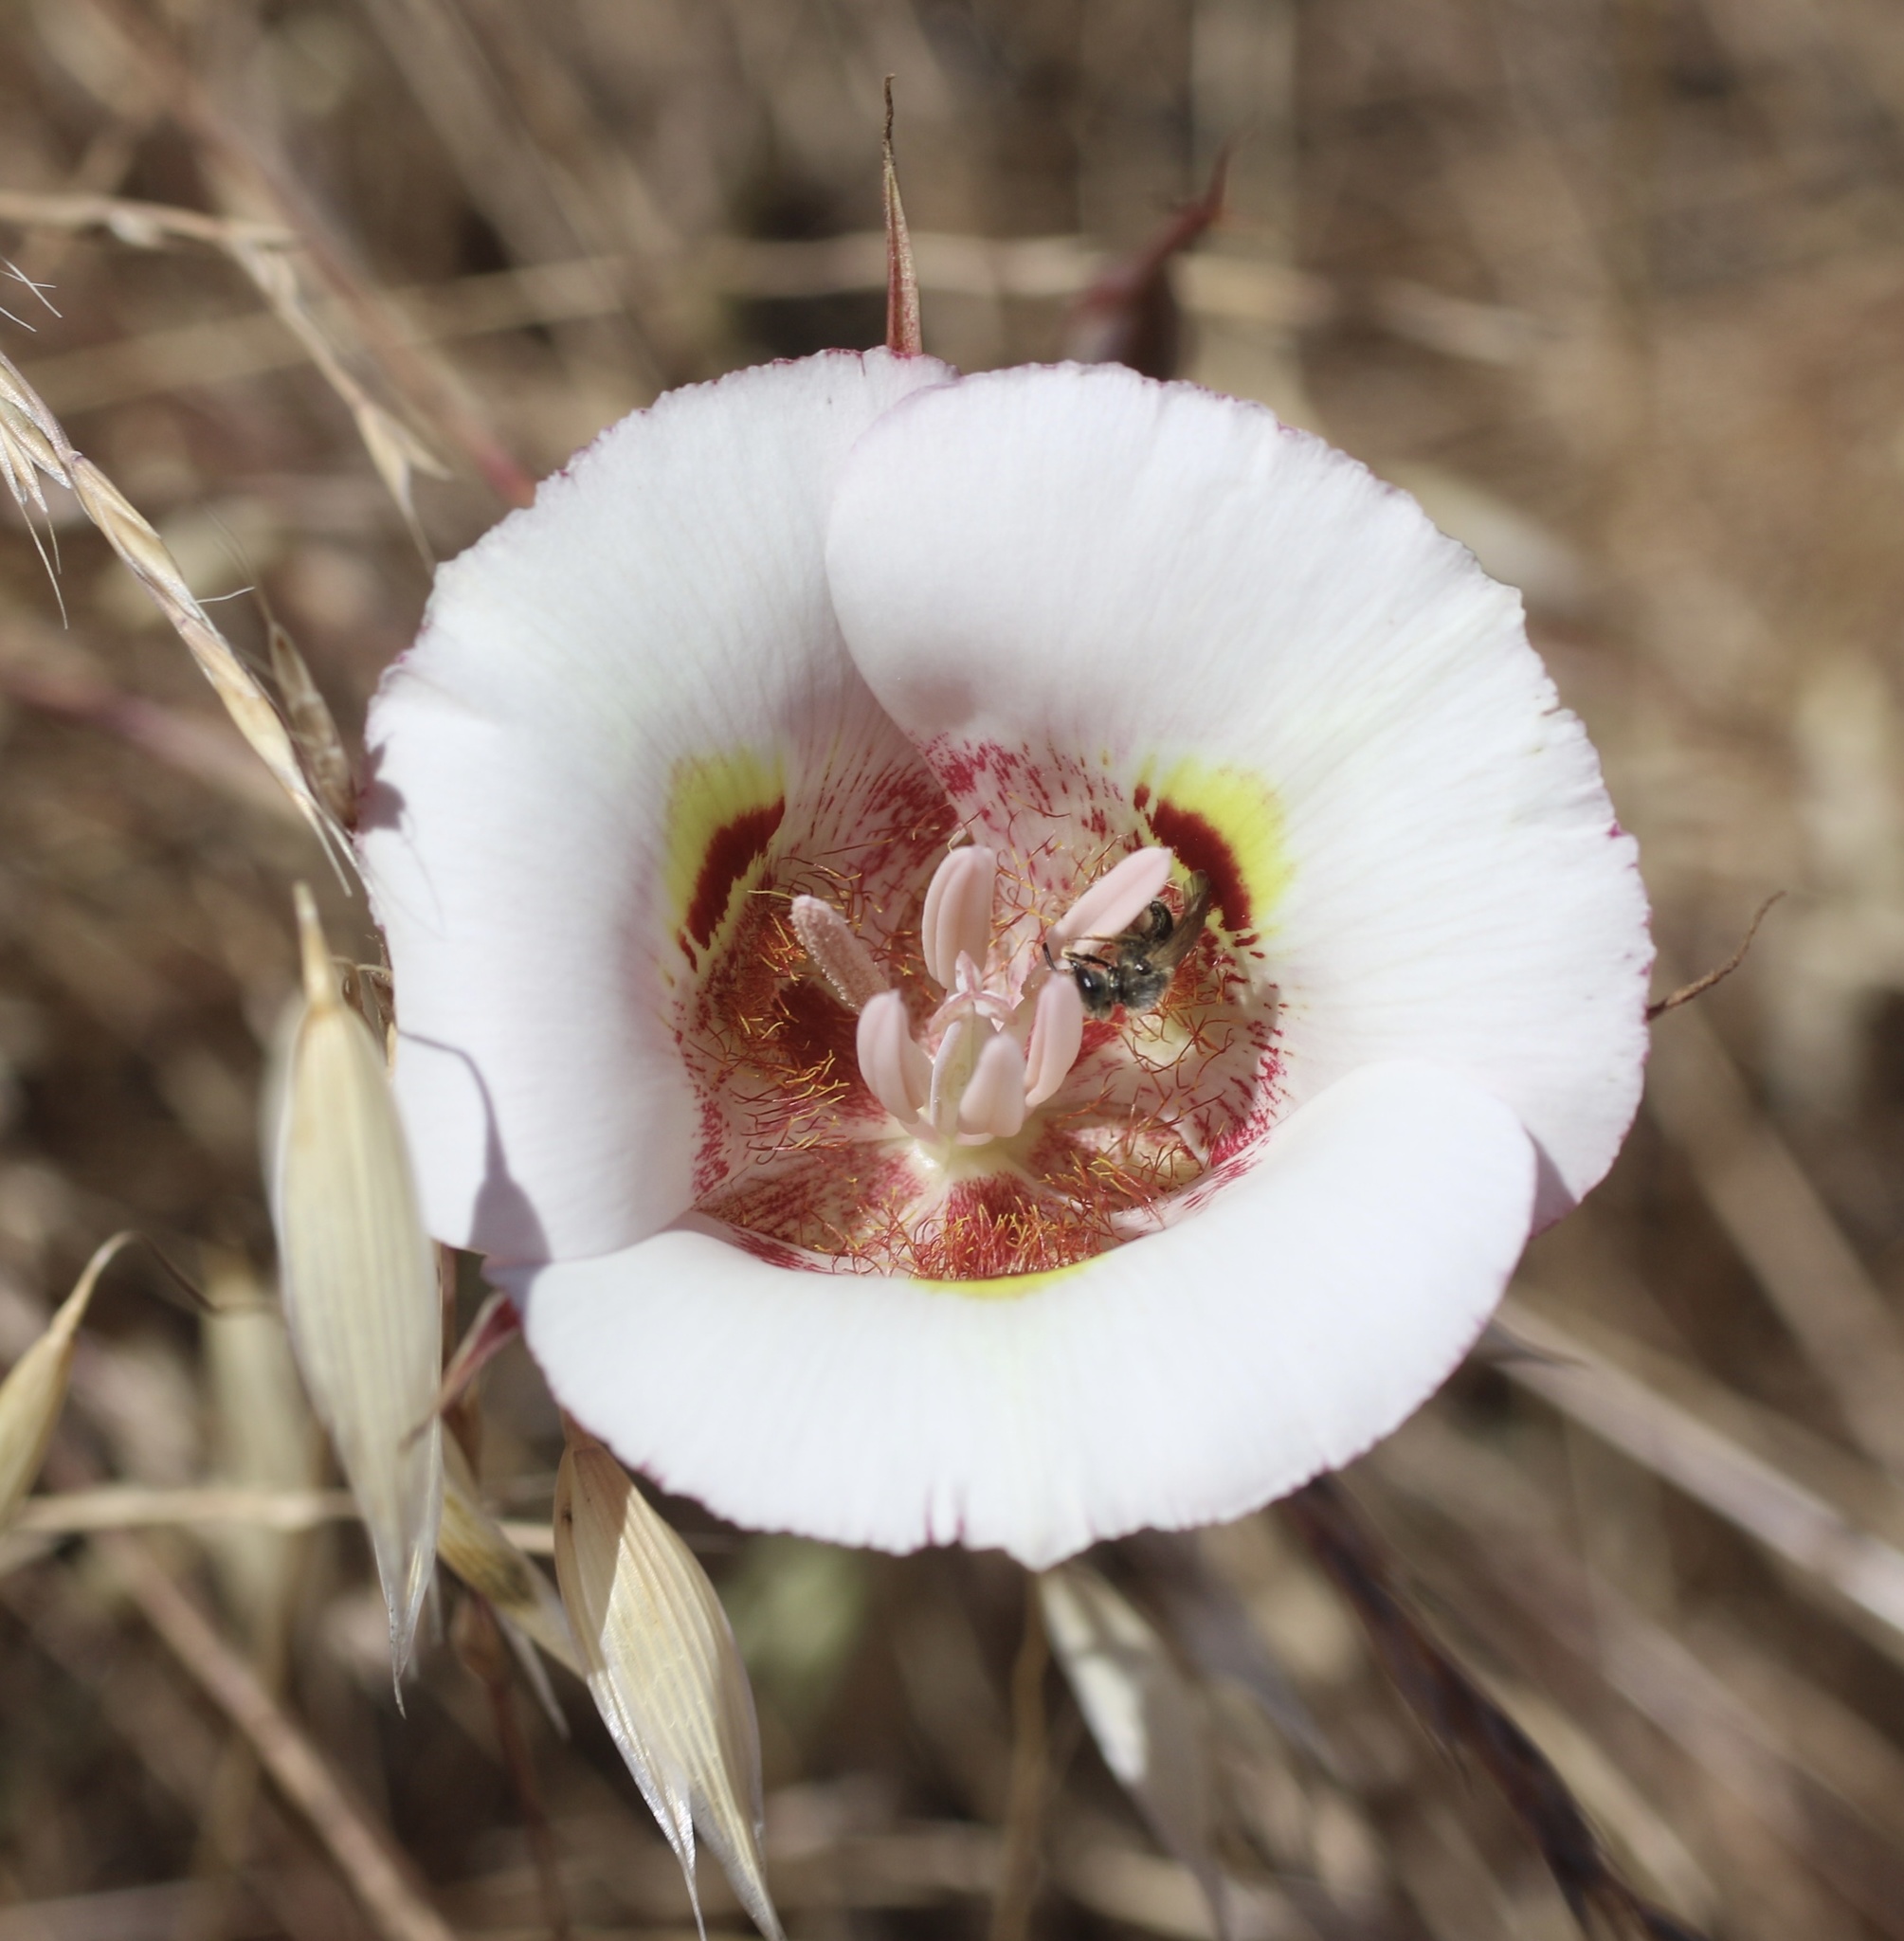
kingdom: Plantae
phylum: Tracheophyta
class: Liliopsida
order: Liliales
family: Liliaceae
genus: Calochortus
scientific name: Calochortus argillosus
